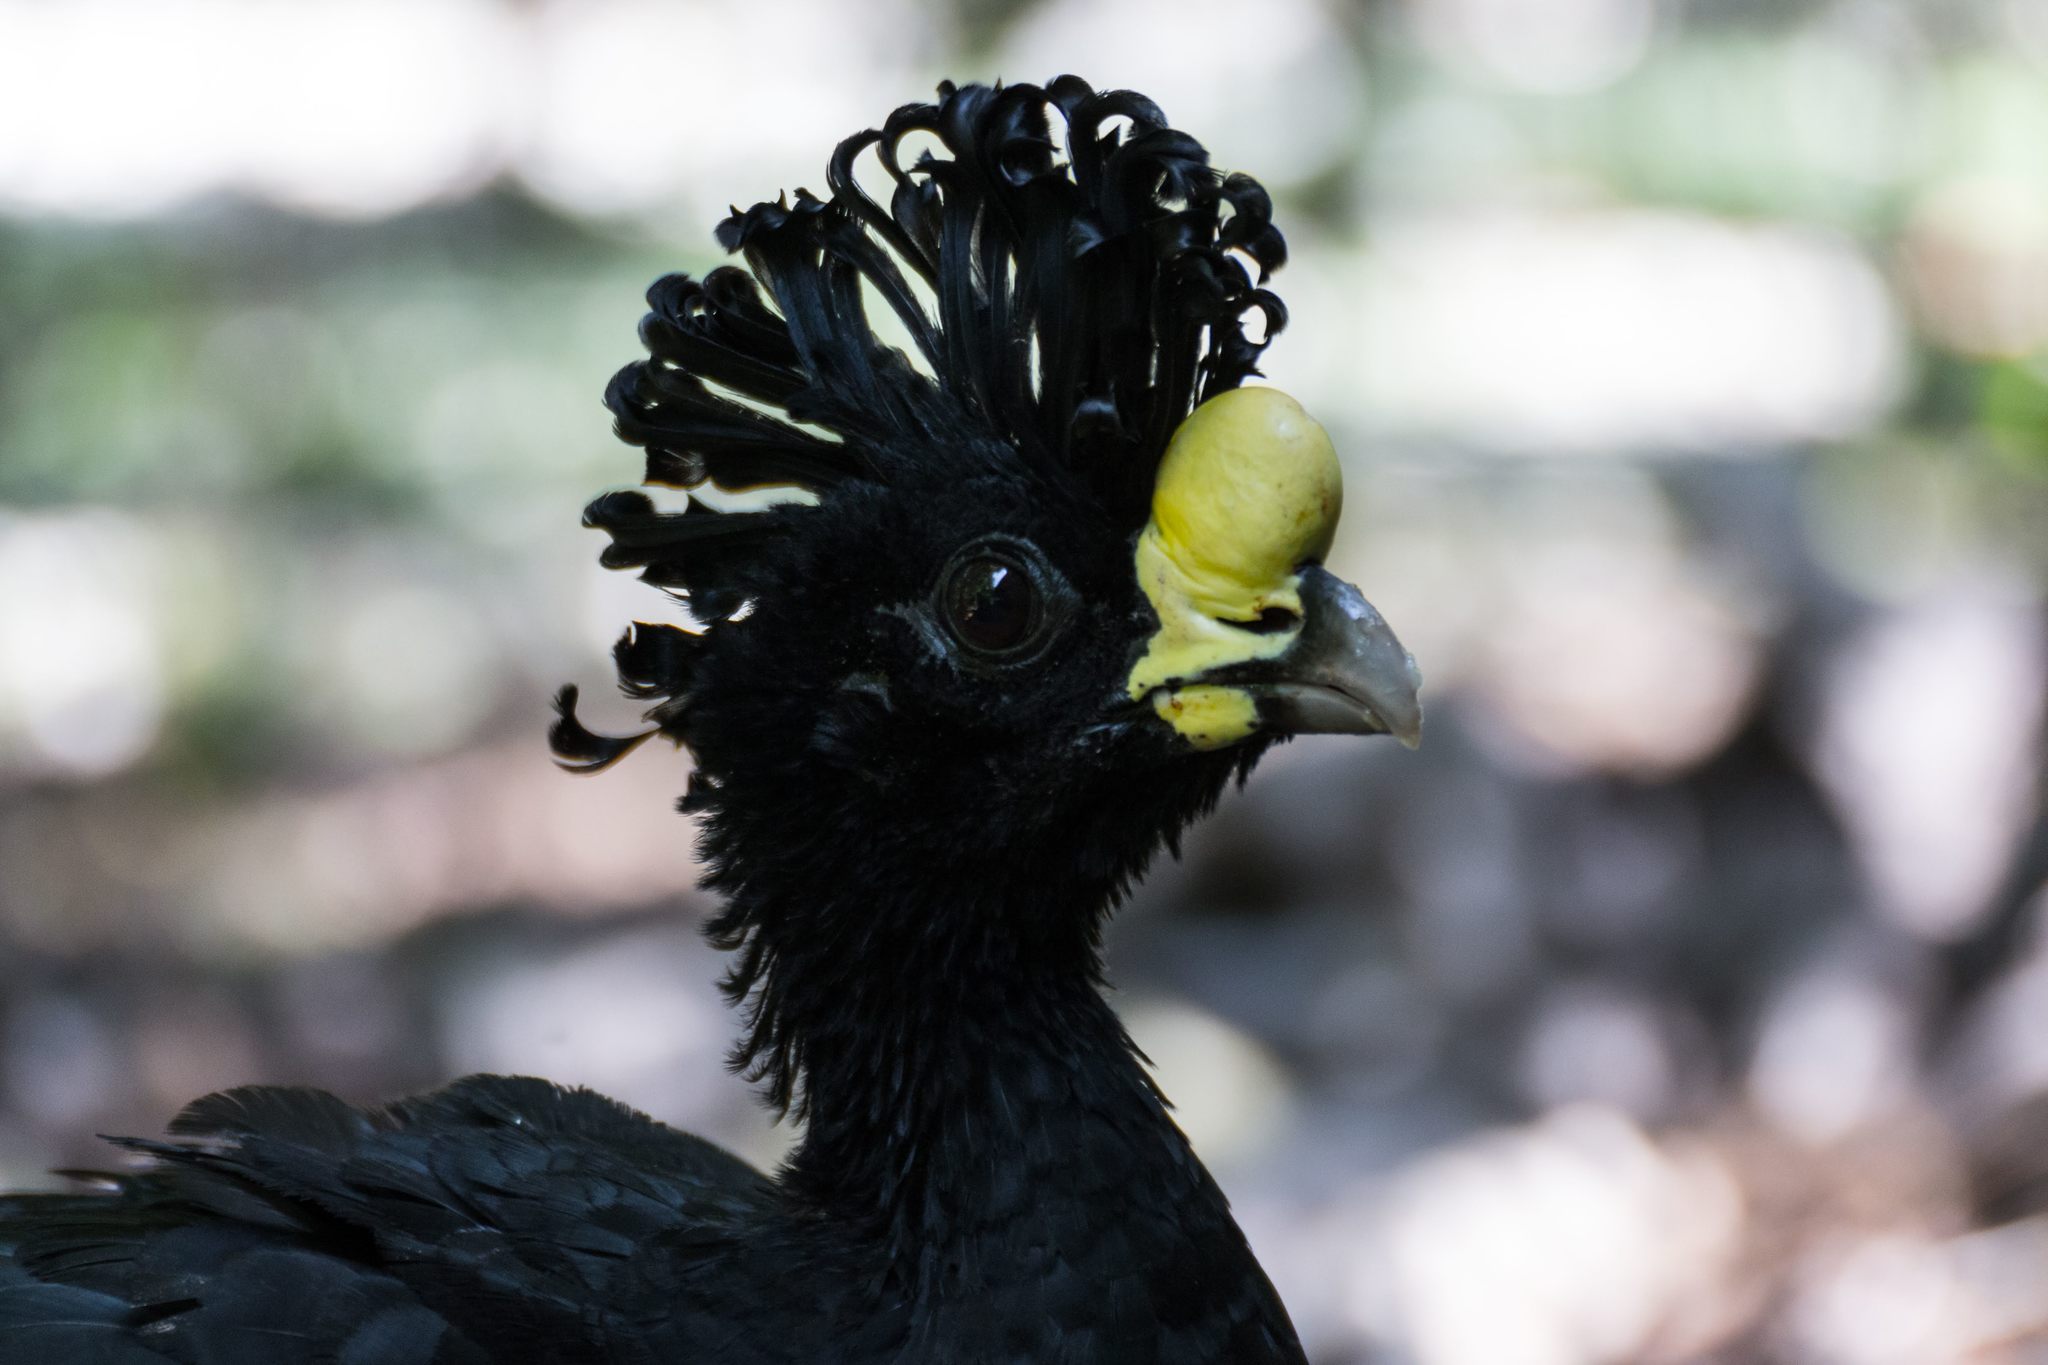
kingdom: Animalia
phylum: Chordata
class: Aves
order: Galliformes
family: Cracidae
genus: Crax
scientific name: Crax rubra
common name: Great curassow
